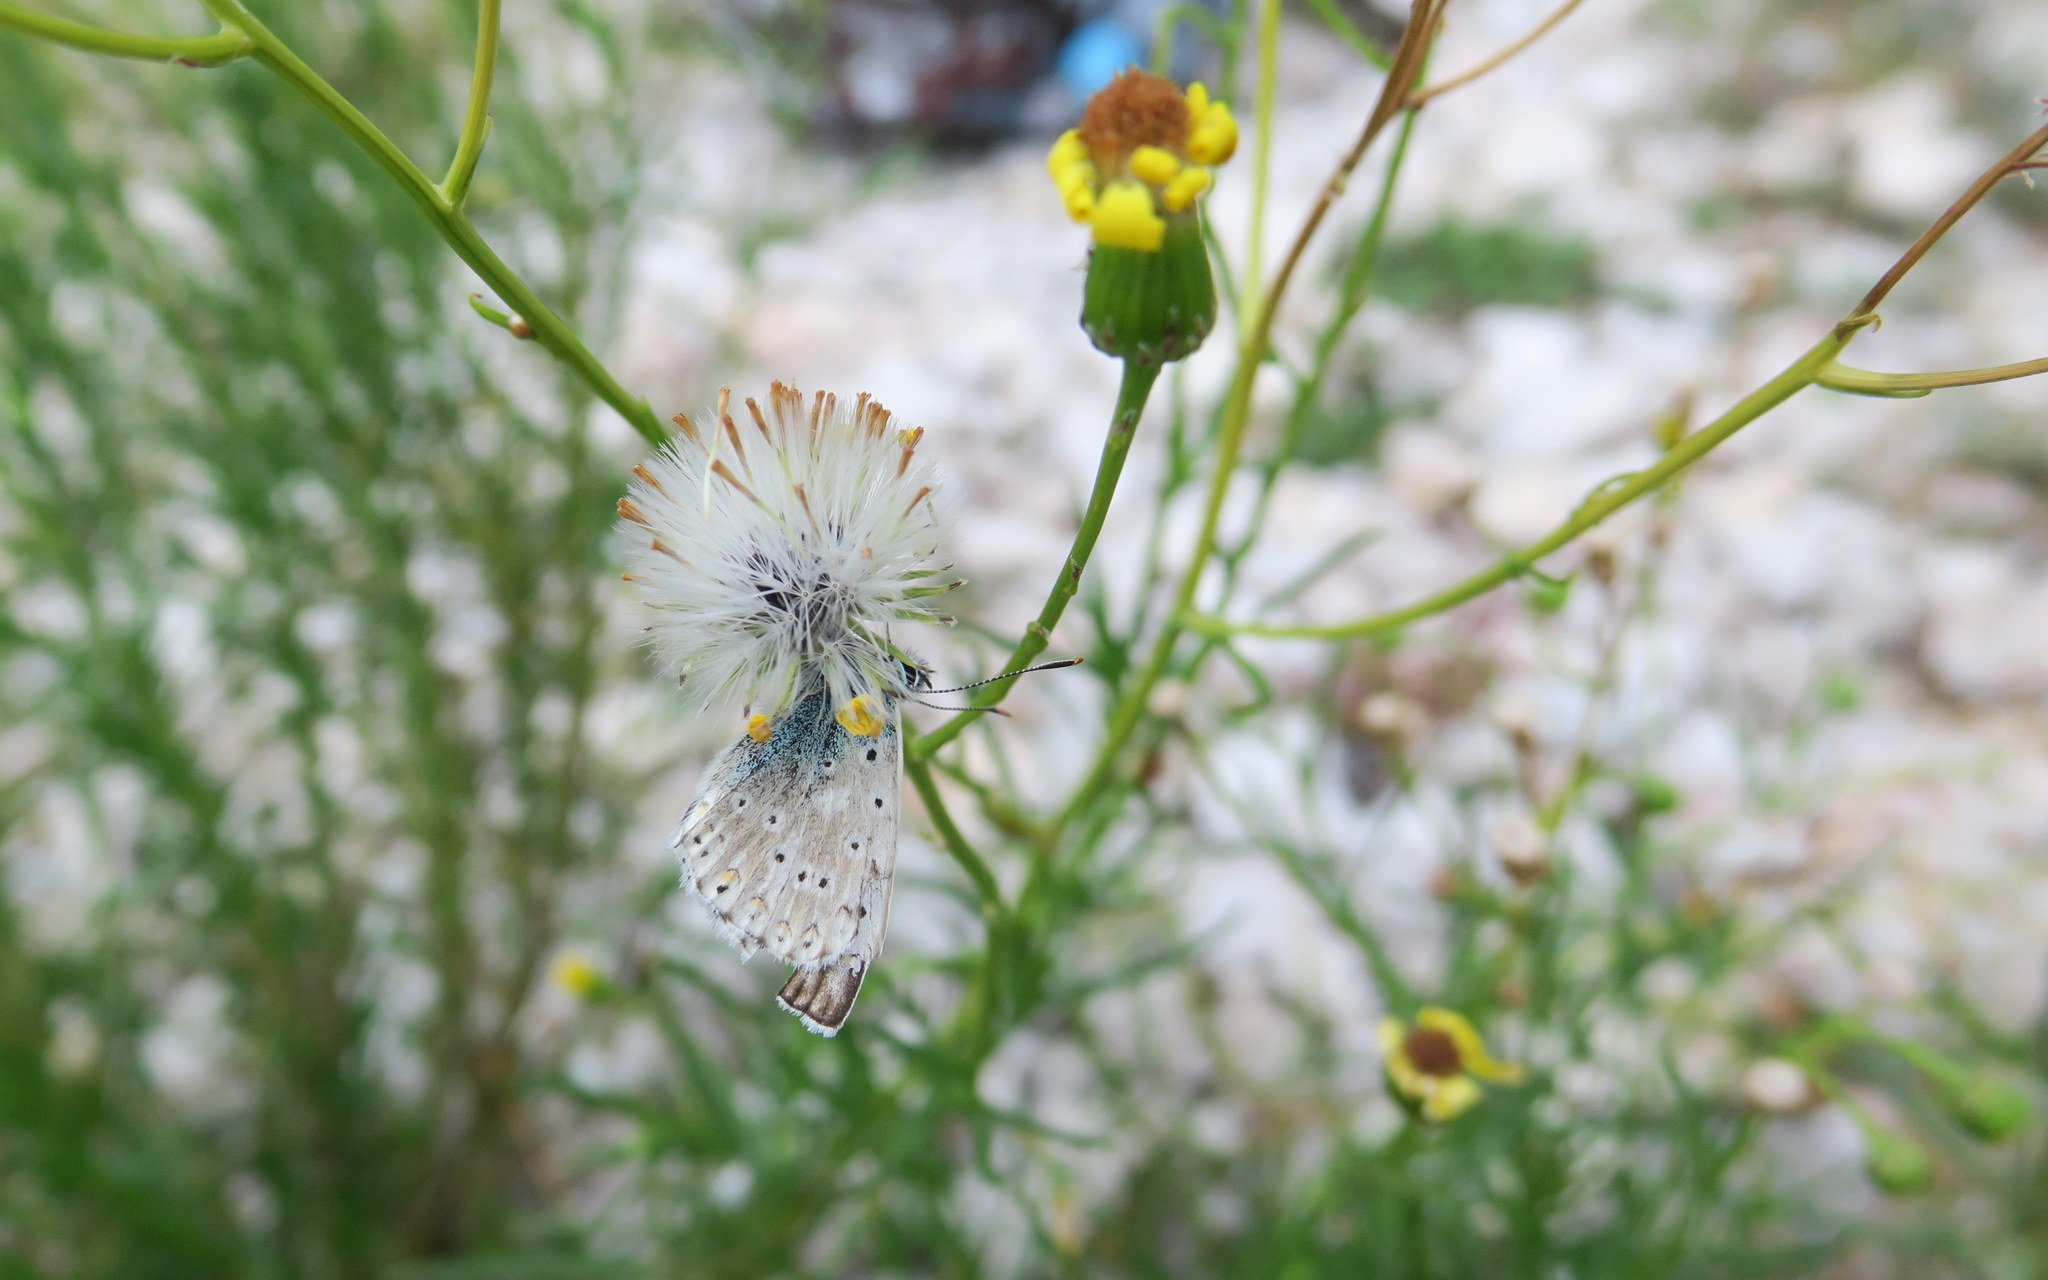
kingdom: Animalia
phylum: Arthropoda
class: Insecta
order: Lepidoptera
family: Lycaenidae
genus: Lysandra
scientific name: Lysandra coridon
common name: Chalkhill blue
